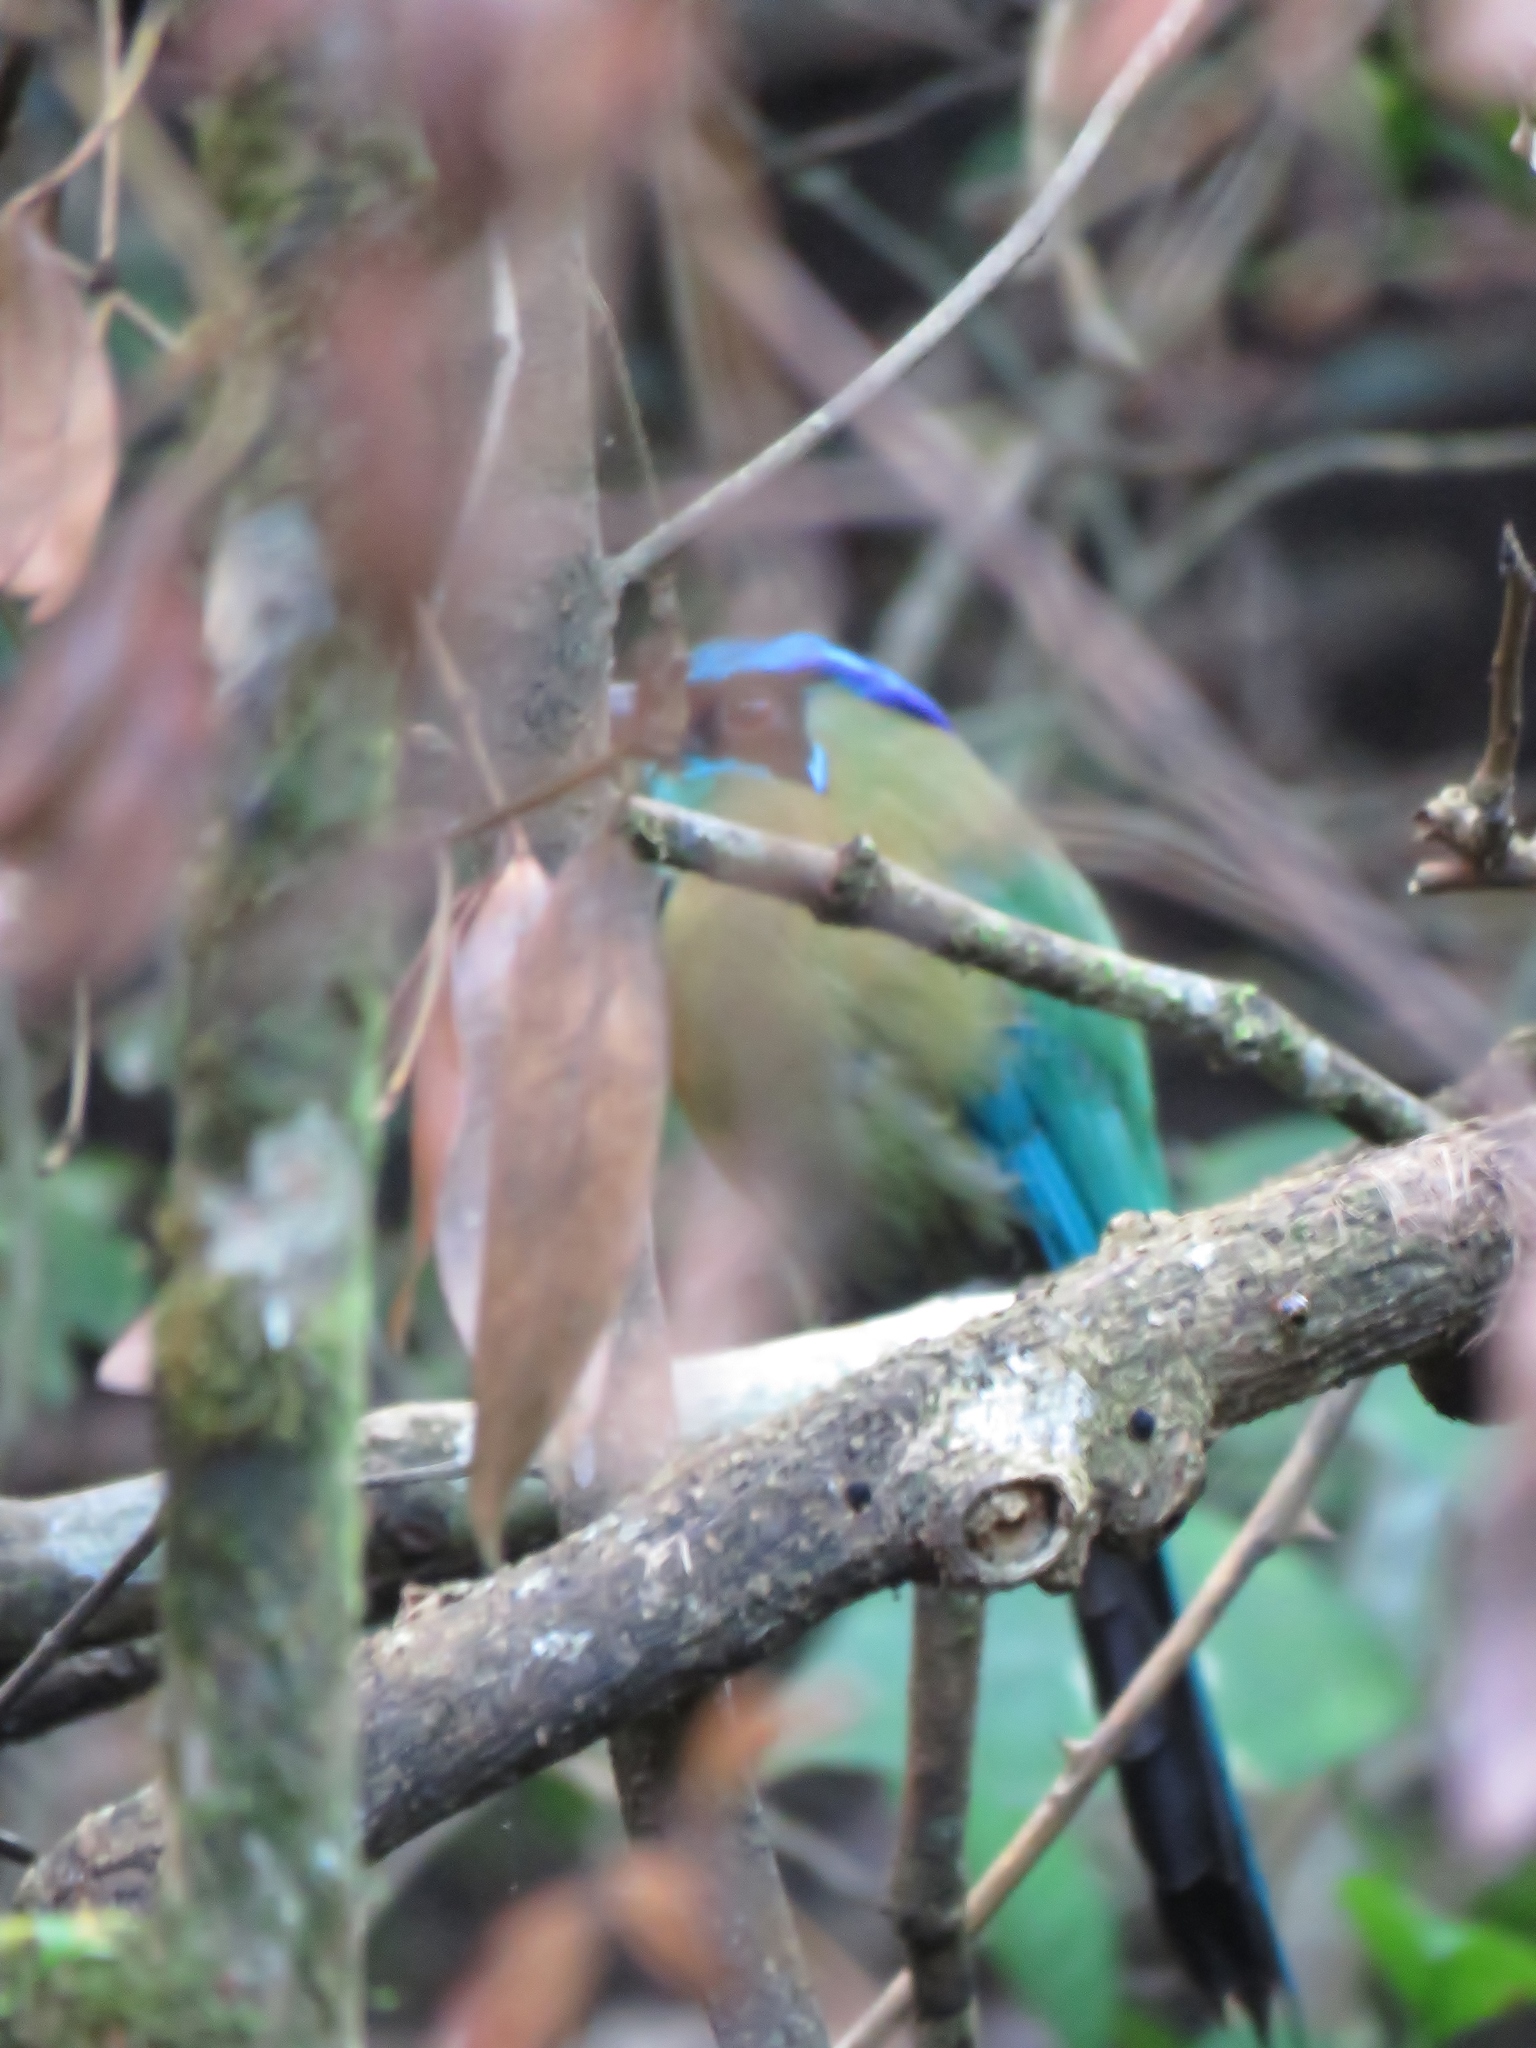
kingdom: Animalia
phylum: Chordata
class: Aves
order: Coraciiformes
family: Momotidae
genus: Momotus
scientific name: Momotus lessonii
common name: Lesson's motmot
